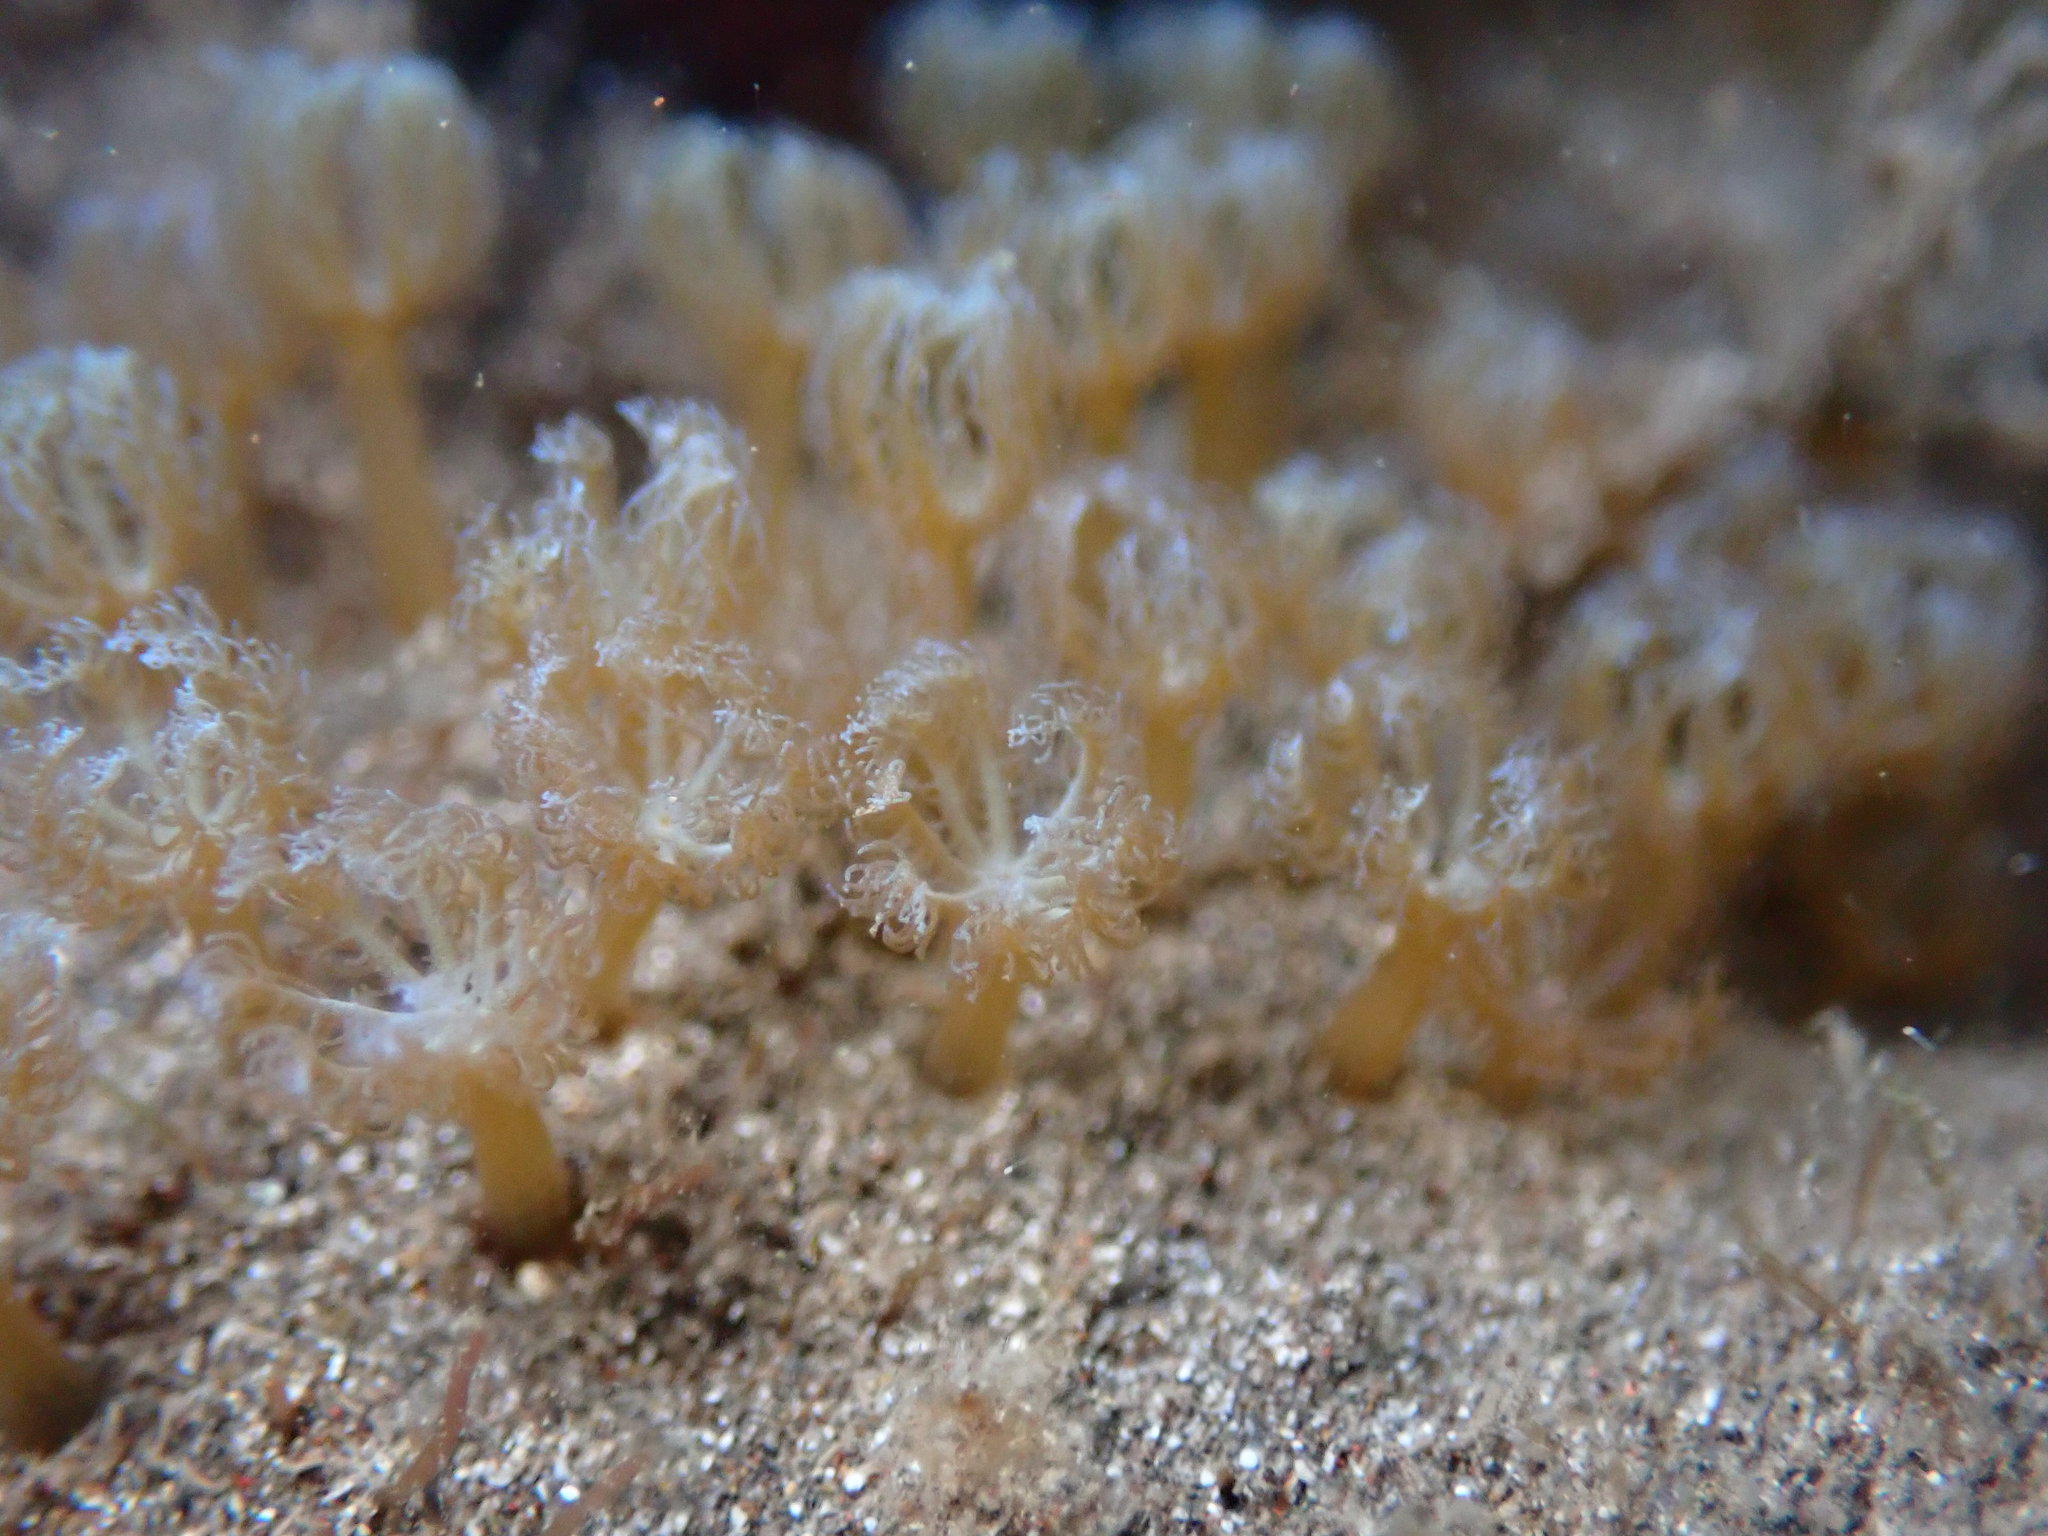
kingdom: Animalia
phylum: Cnidaria
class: Anthozoa
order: Malacalcyonacea
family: Xeniidae
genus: Sarcothelia
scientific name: Sarcothelia edmondsoni
